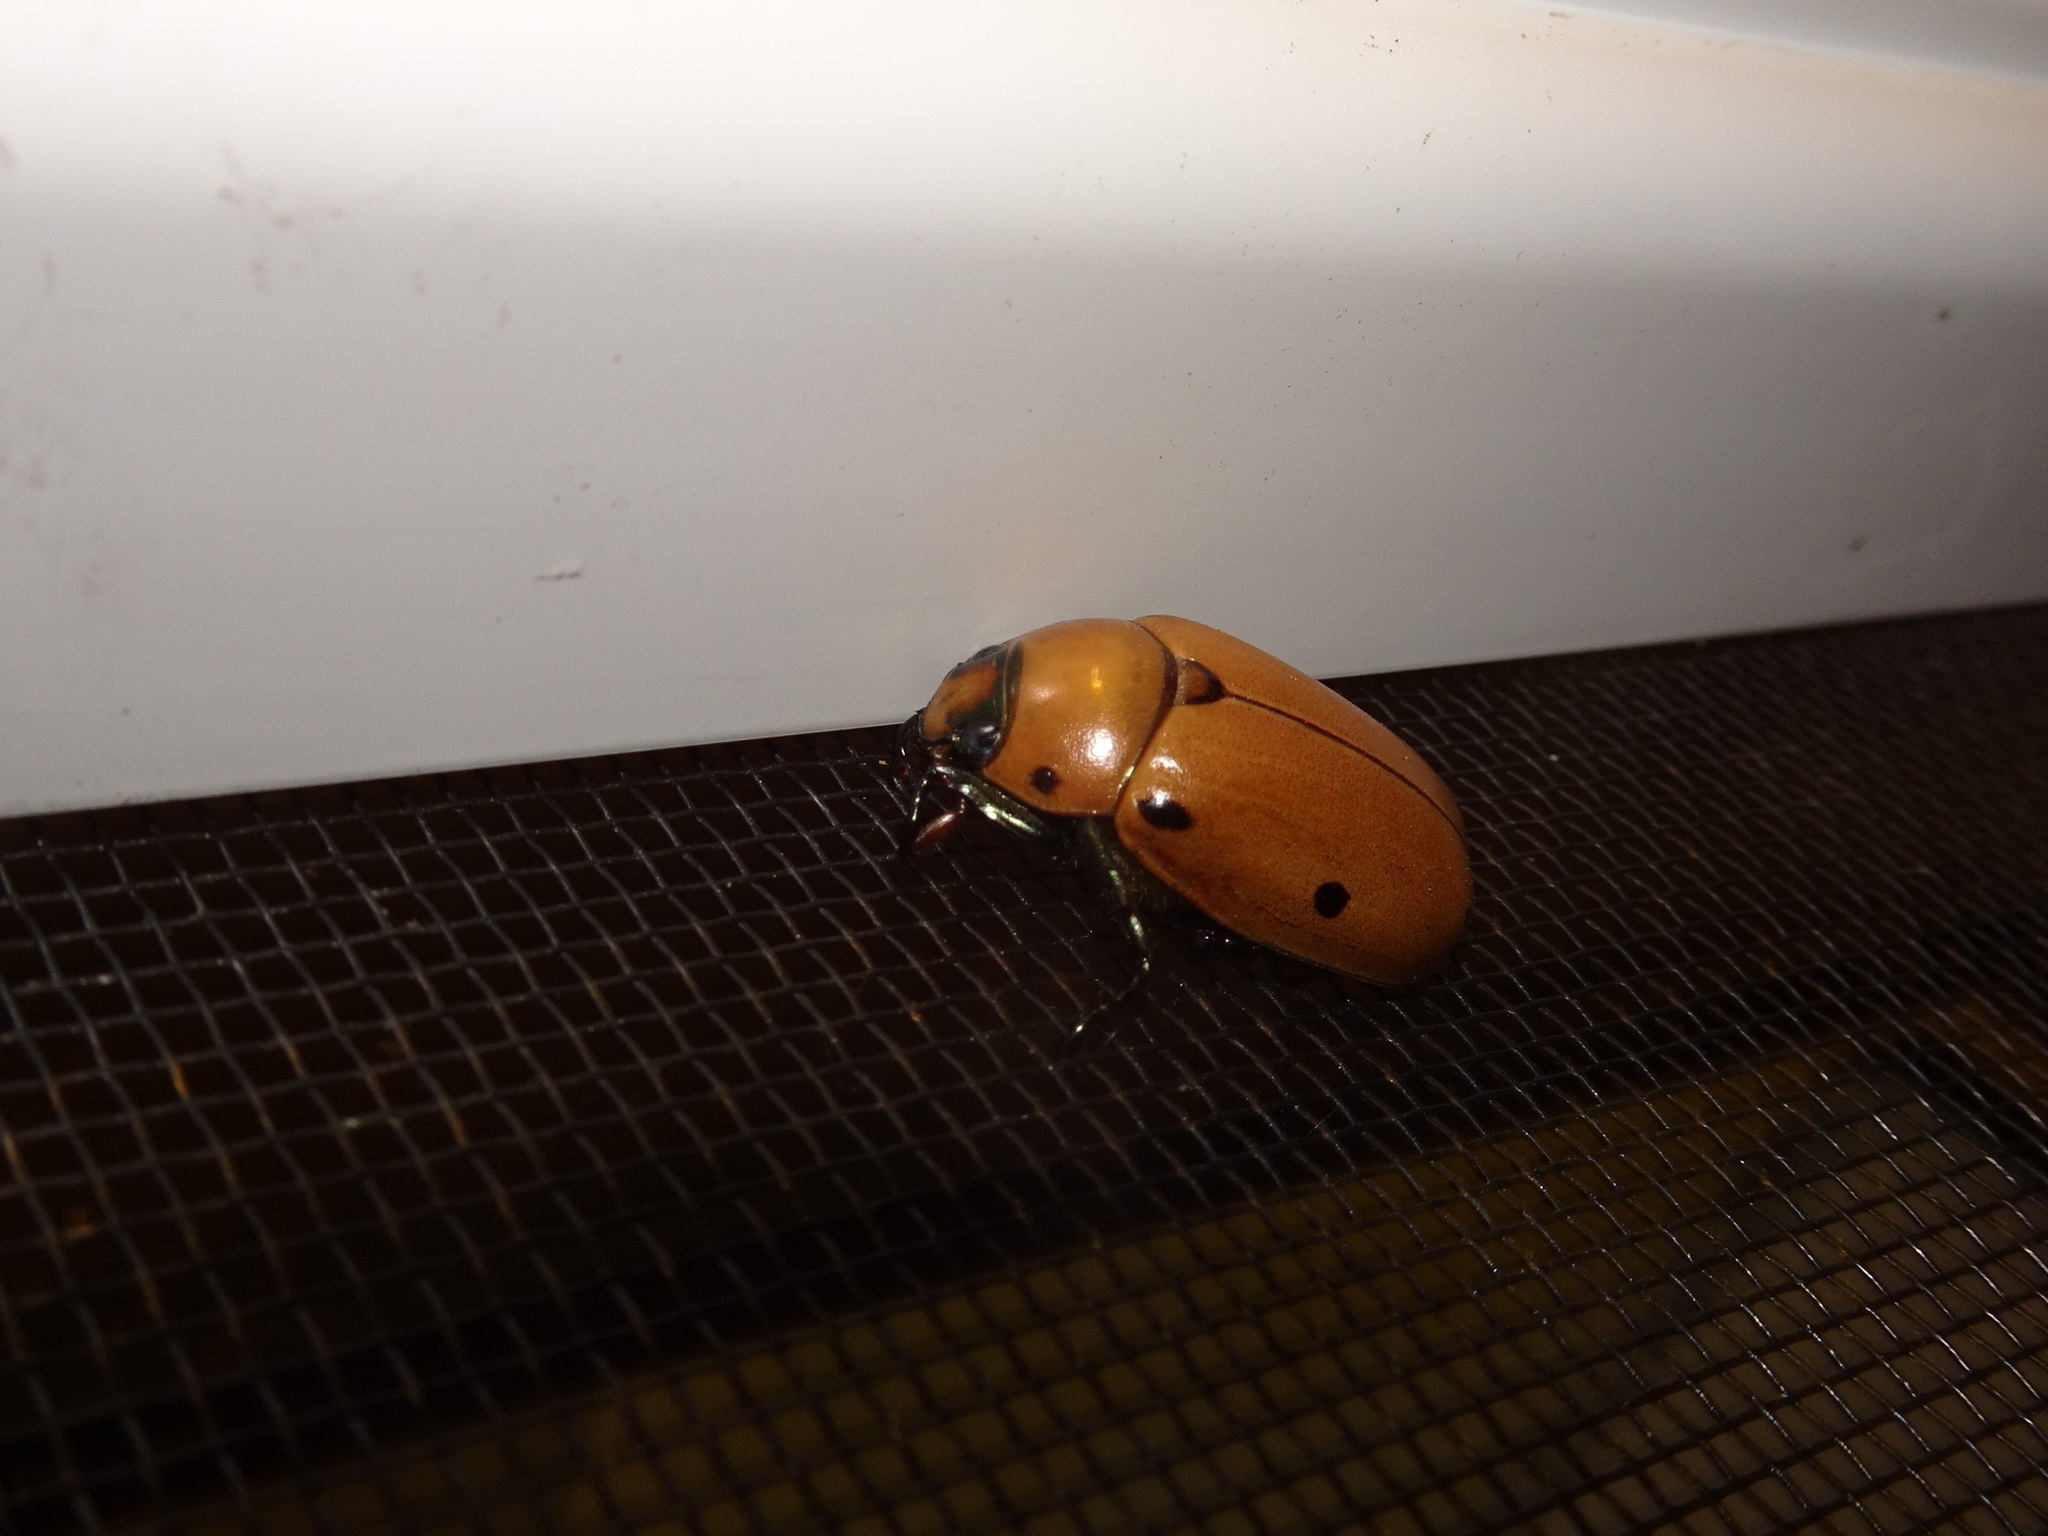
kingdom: Animalia
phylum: Arthropoda
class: Insecta
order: Coleoptera
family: Scarabaeidae
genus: Pelidnota
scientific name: Pelidnota punctata
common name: Grapevine beetle
